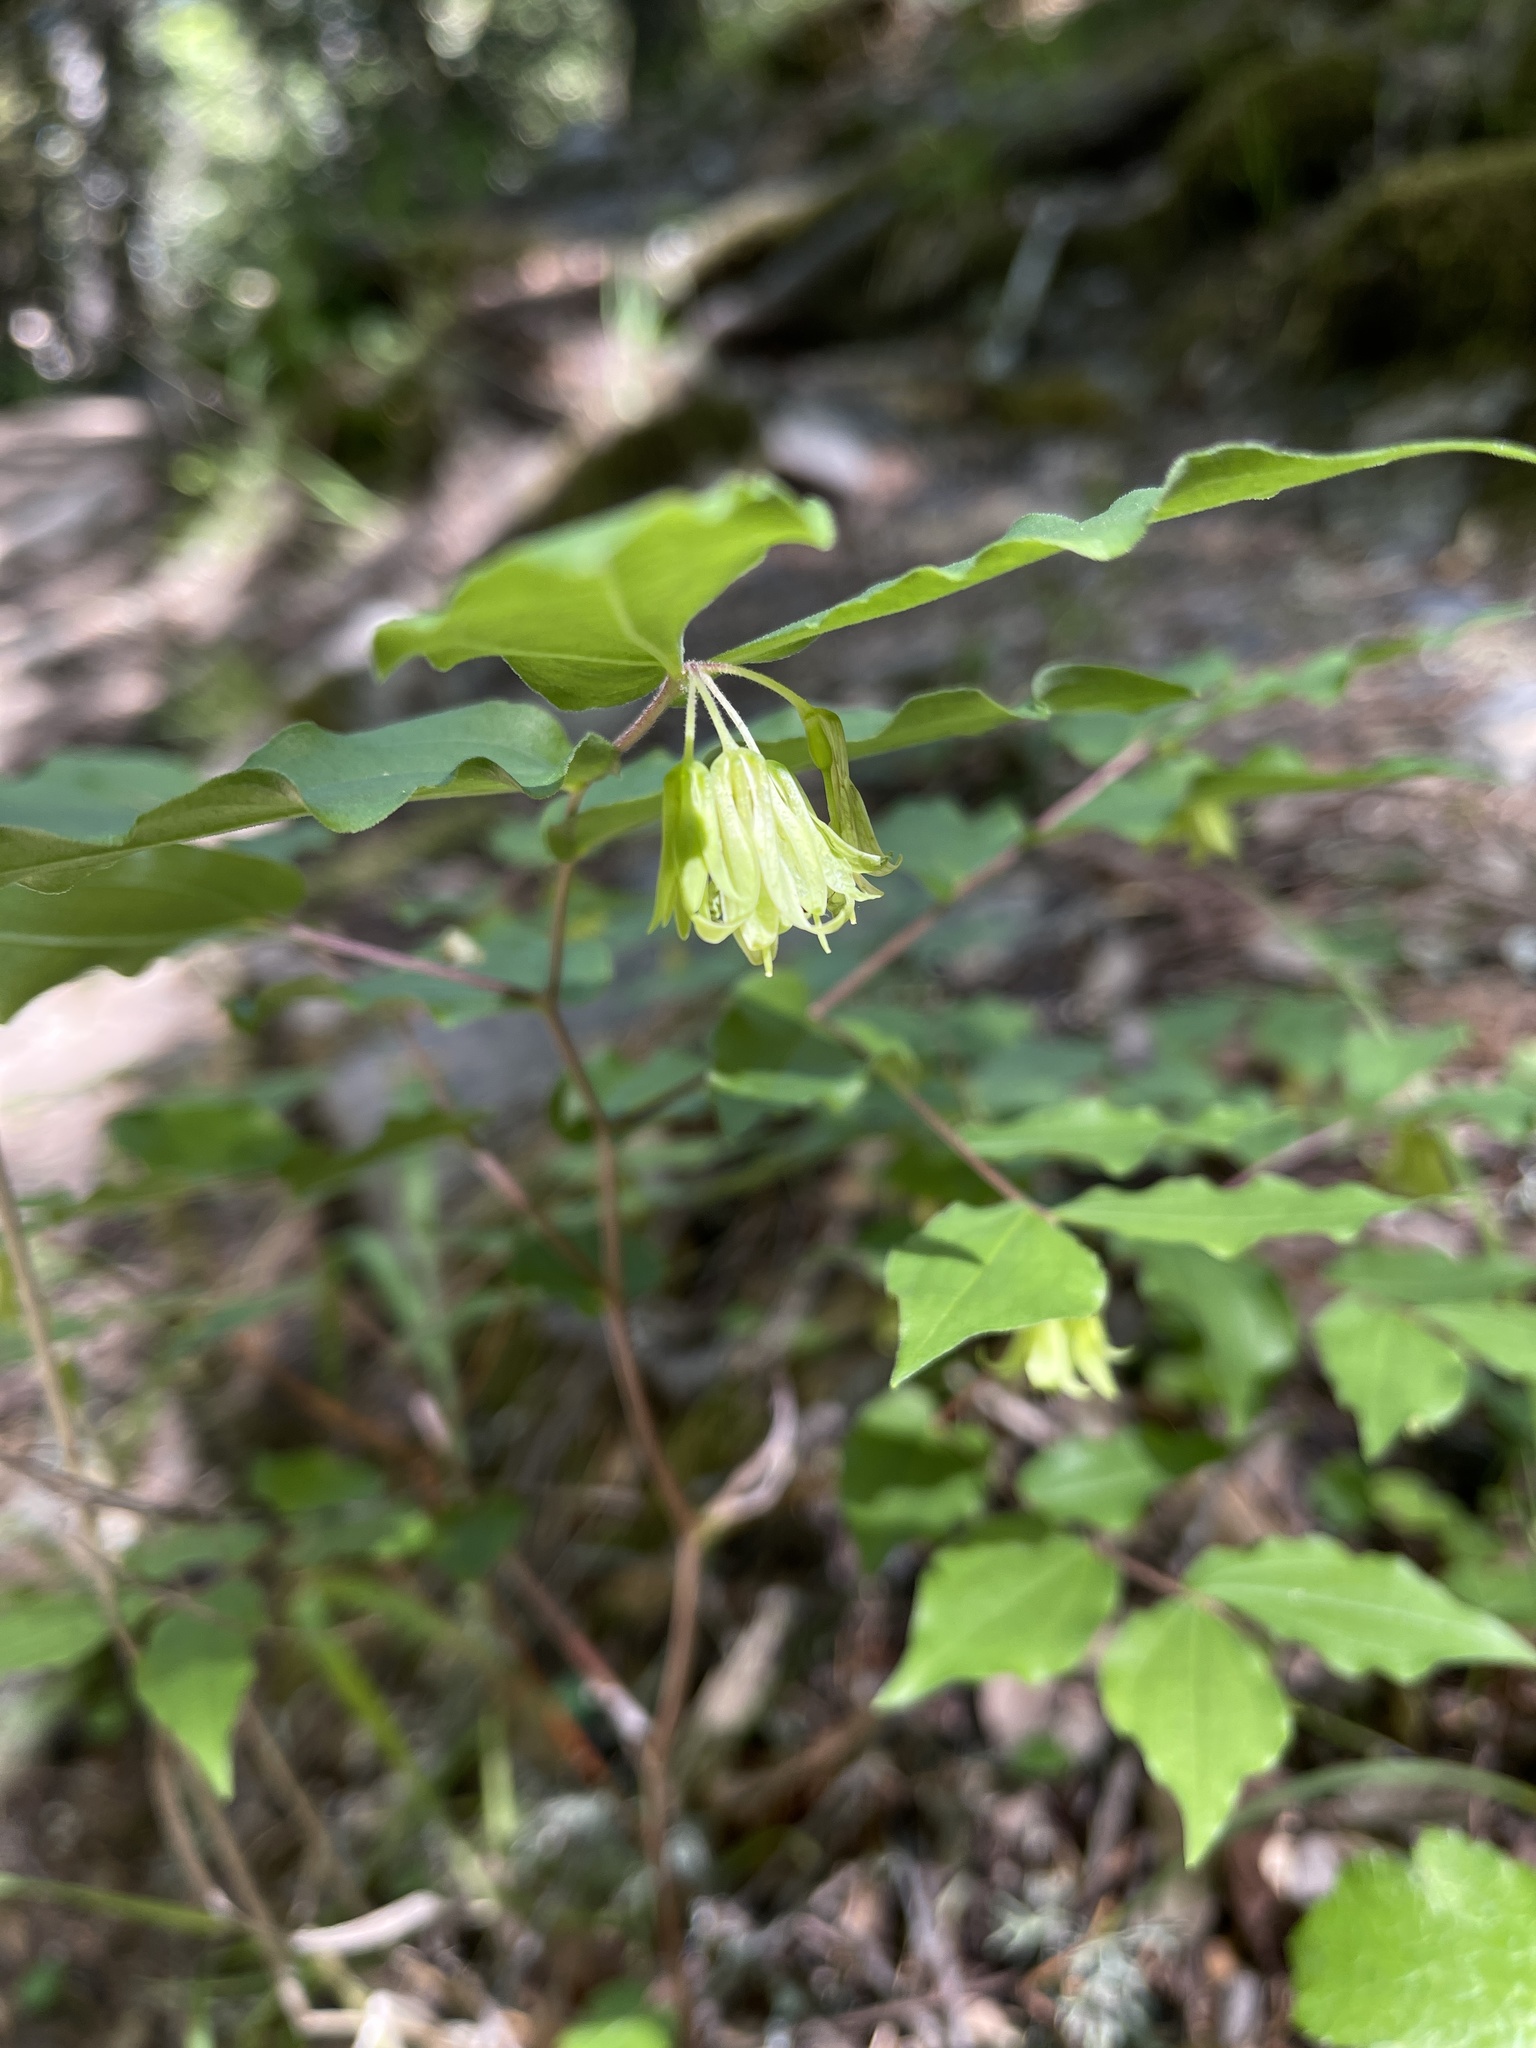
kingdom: Plantae
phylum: Tracheophyta
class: Liliopsida
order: Liliales
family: Liliaceae
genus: Prosartes
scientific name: Prosartes hookeri
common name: Fairy-bells
